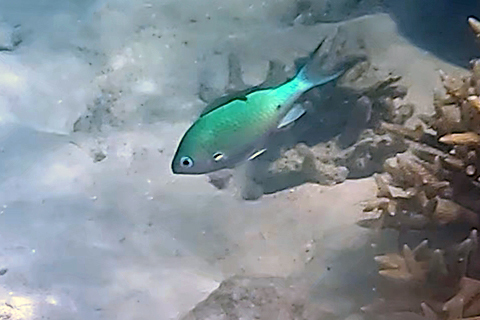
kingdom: Animalia
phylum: Chordata
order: Perciformes
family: Pomacentridae
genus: Chromis
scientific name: Chromis atripectoralis
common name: Black-axil chromis
